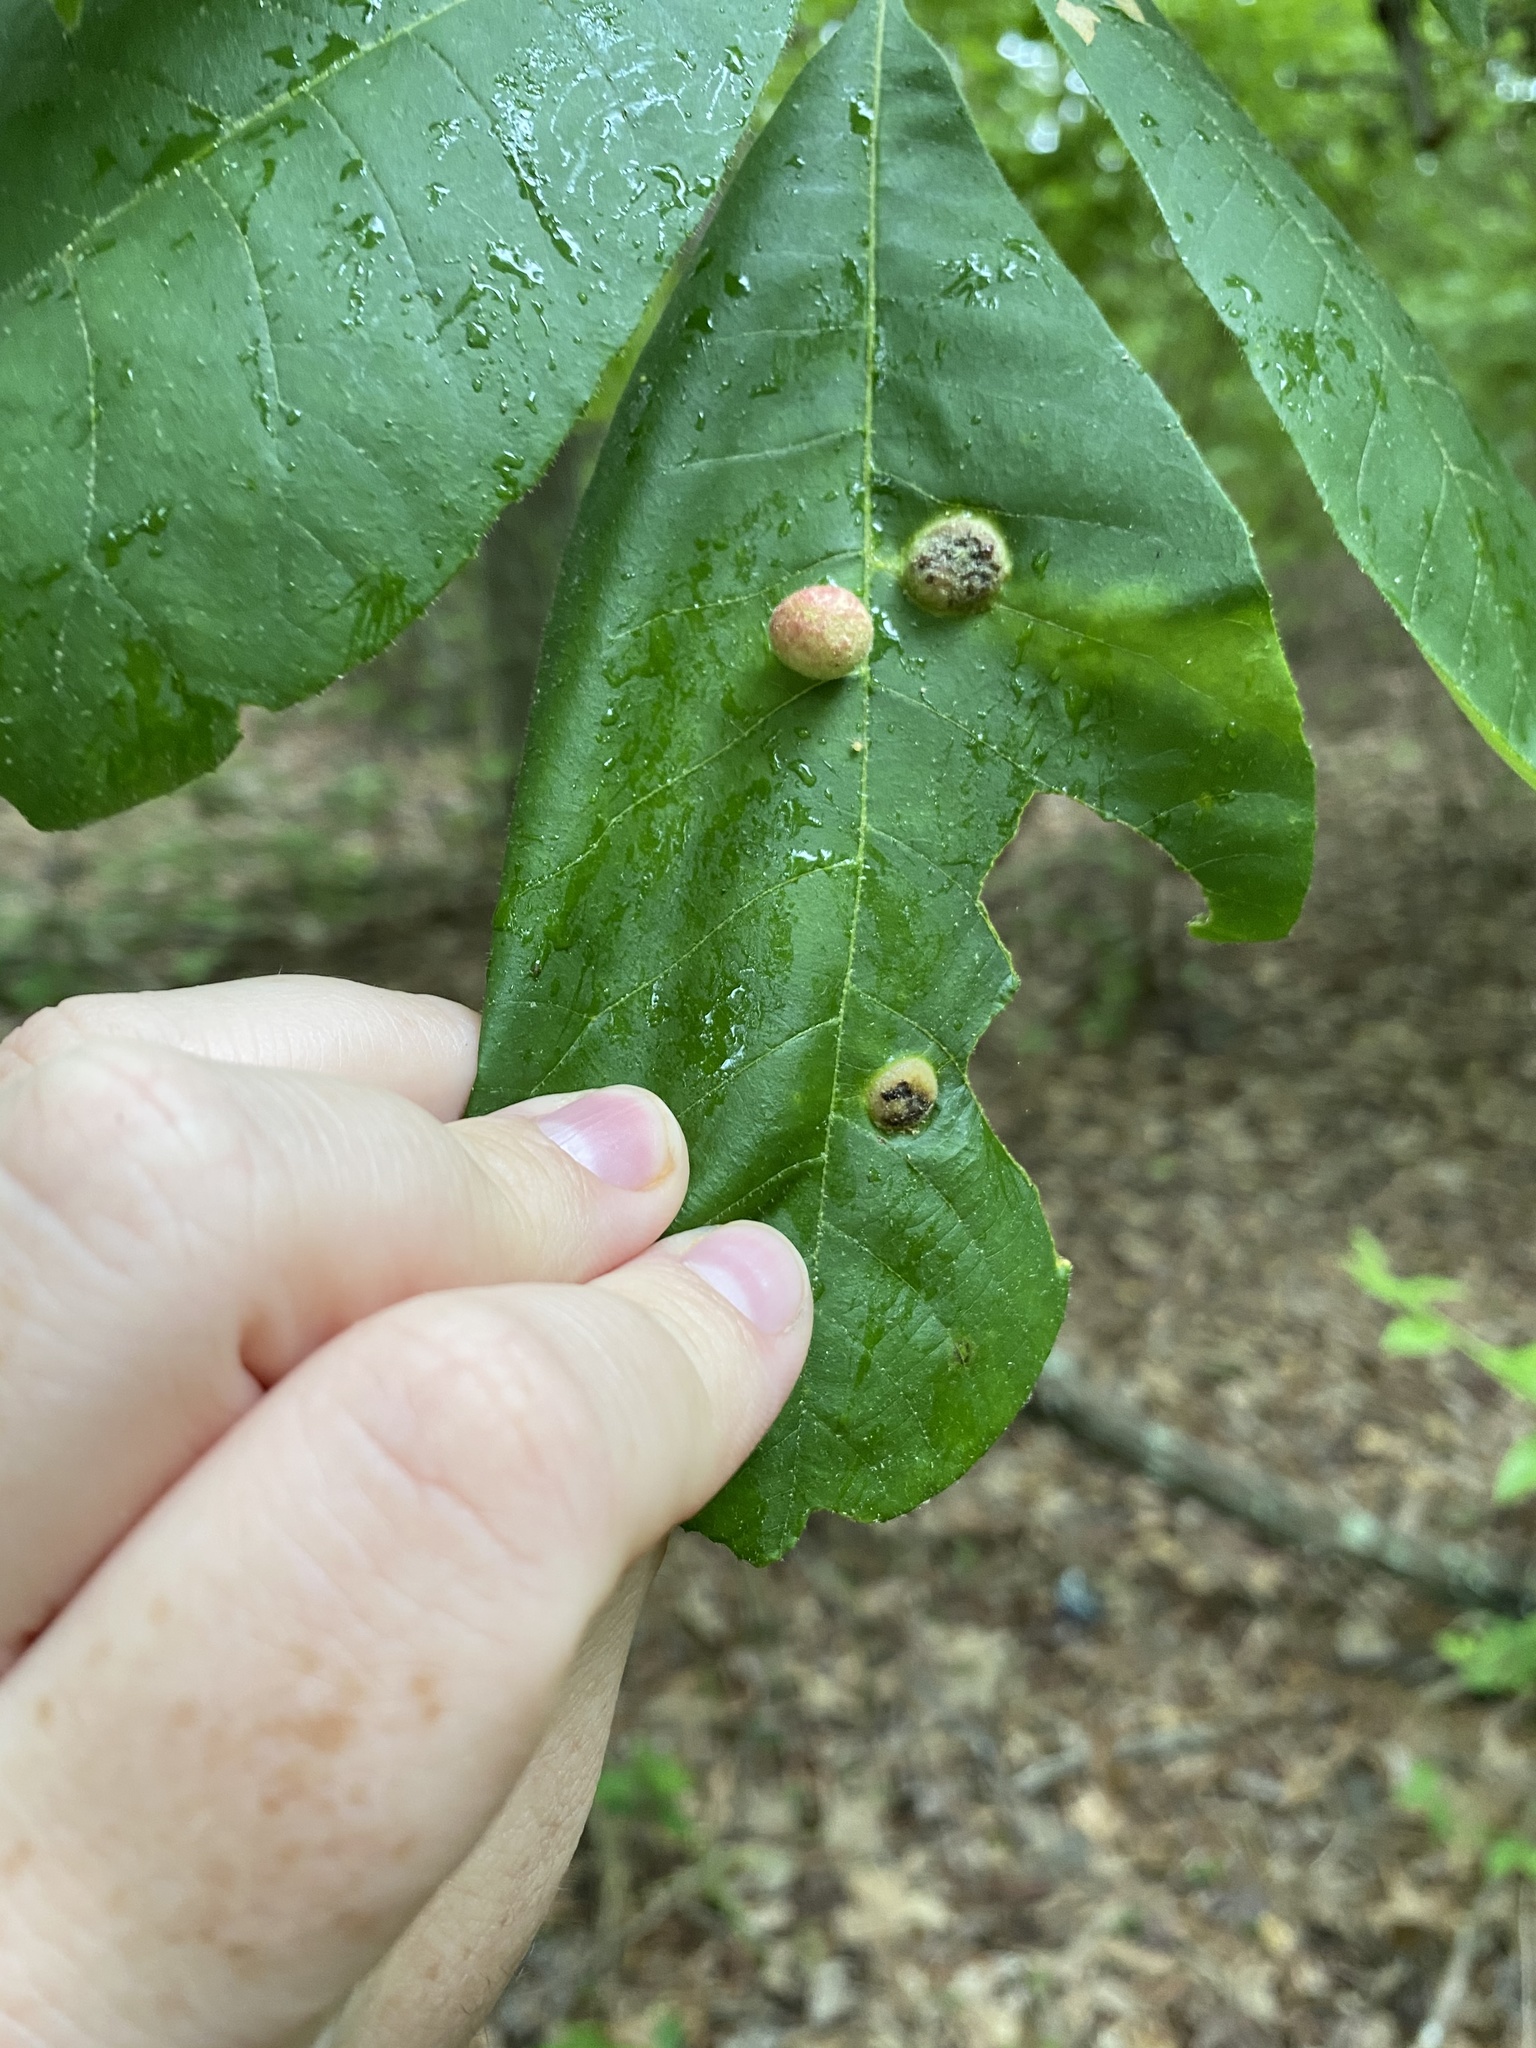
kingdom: Animalia
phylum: Arthropoda
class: Insecta
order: Hemiptera
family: Phylloxeridae
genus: Daktulosphaira
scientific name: Daktulosphaira conicum
